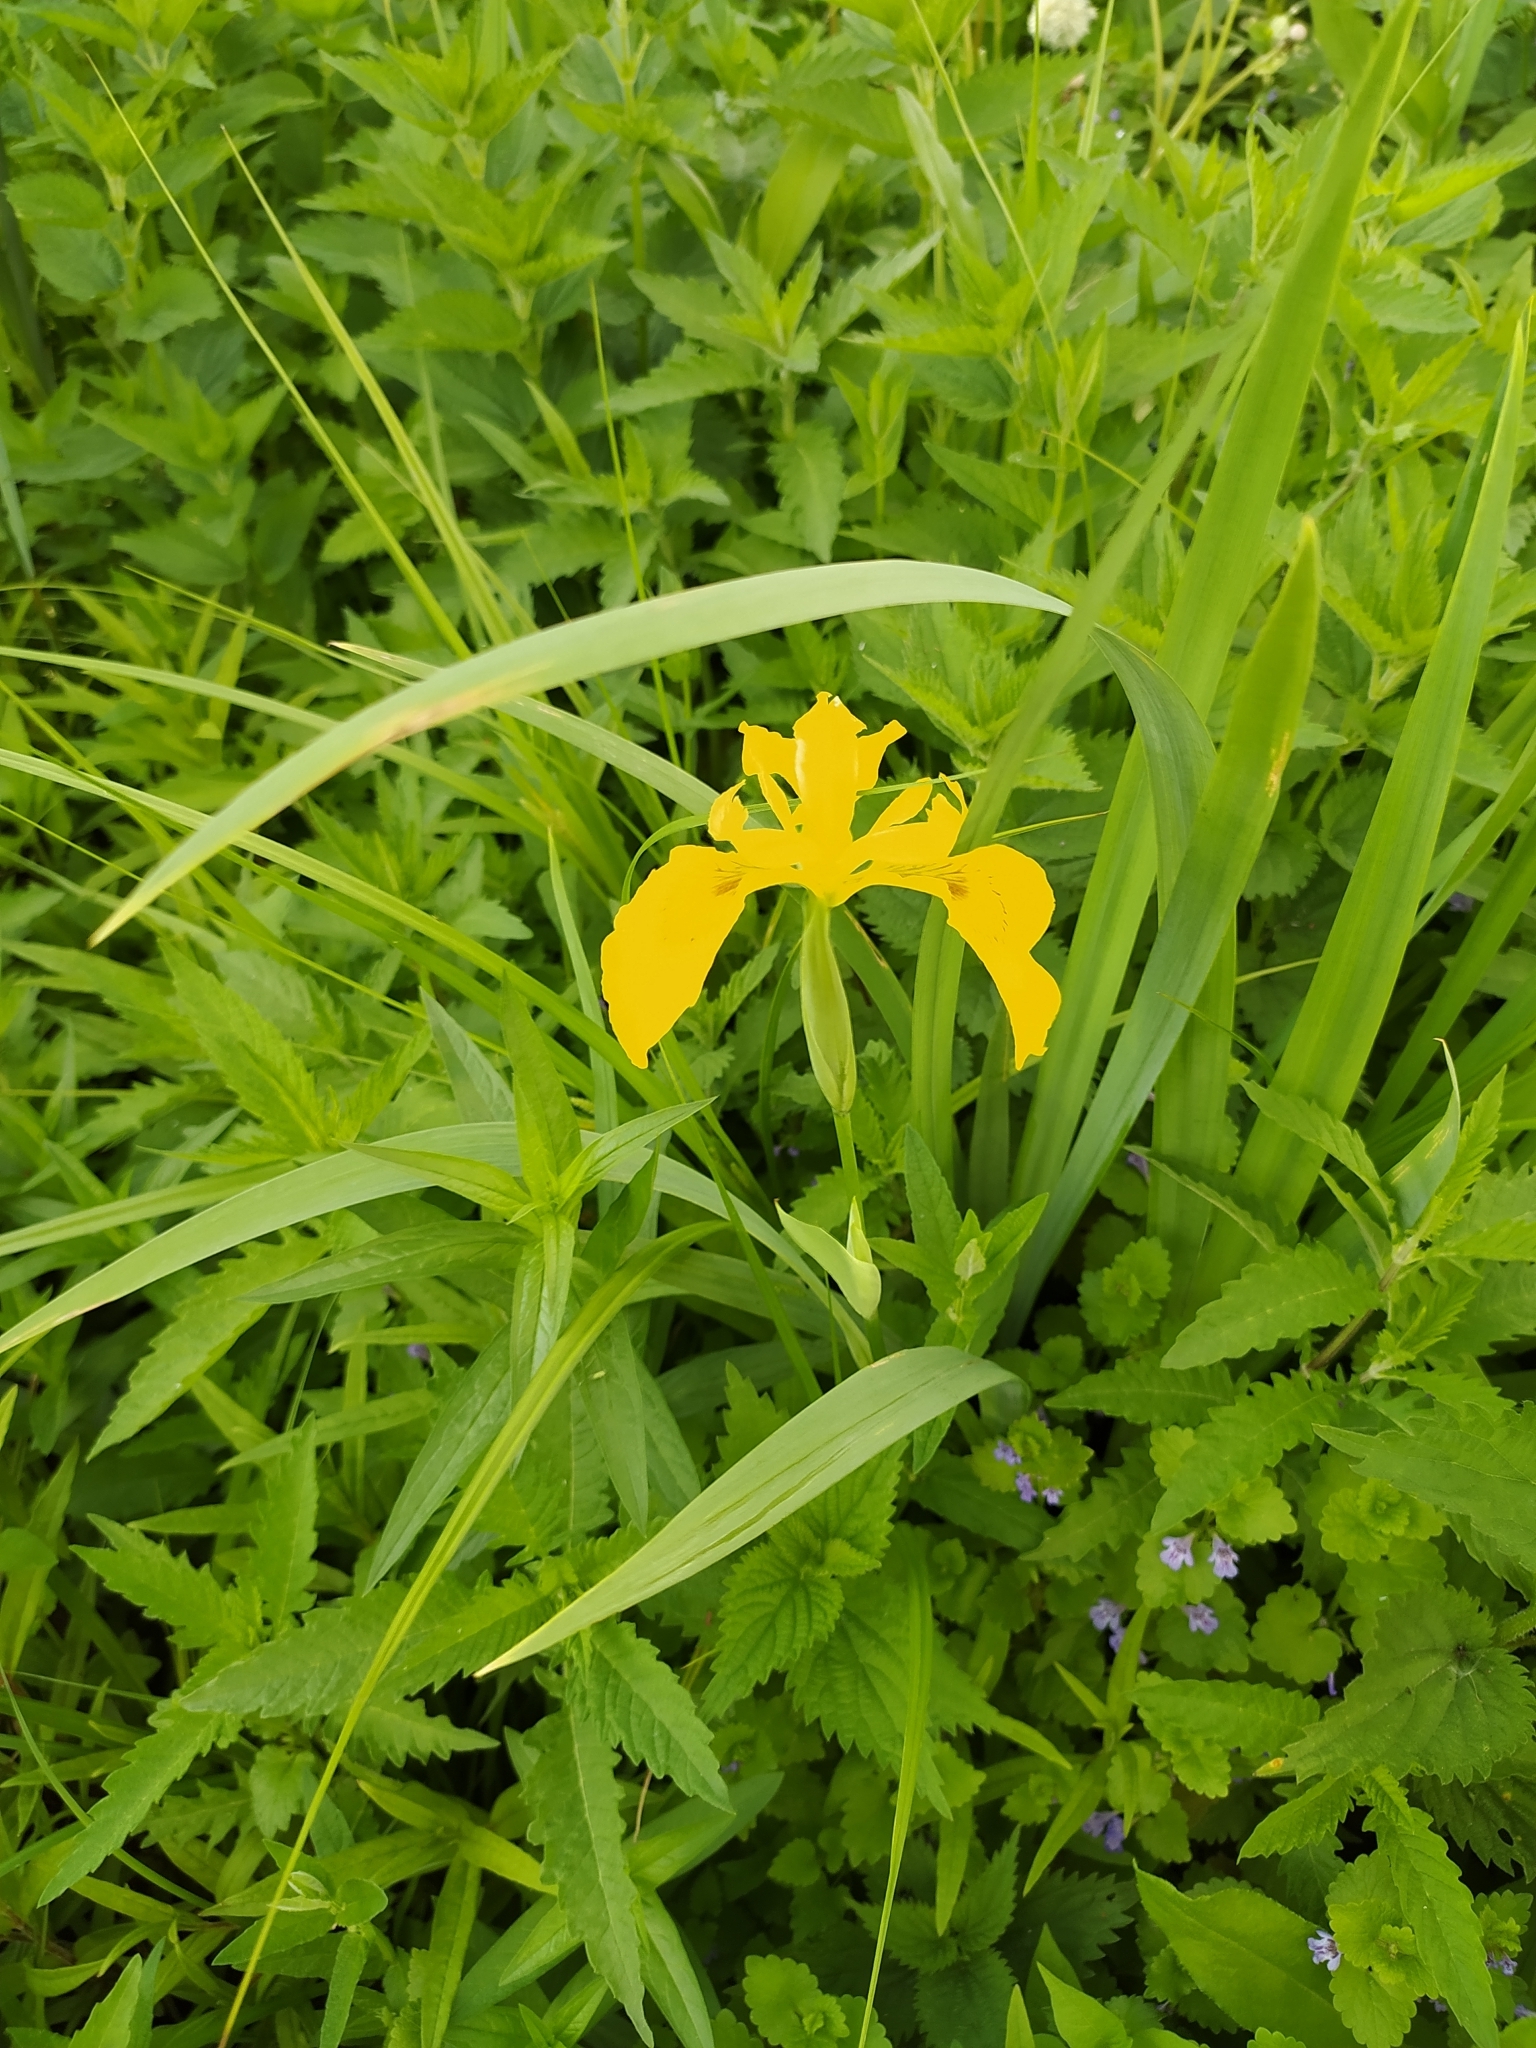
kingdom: Plantae
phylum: Tracheophyta
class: Liliopsida
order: Asparagales
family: Iridaceae
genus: Iris
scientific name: Iris pseudacorus
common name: Yellow flag
